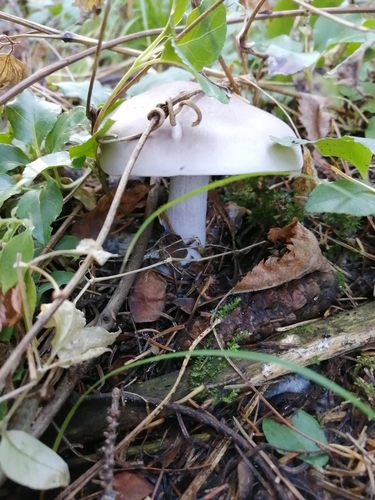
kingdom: Fungi
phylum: Basidiomycota
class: Agaricomycetes
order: Agaricales
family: Tricholomataceae
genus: Clitocybe
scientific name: Clitocybe nebularis
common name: Clouded agaric
